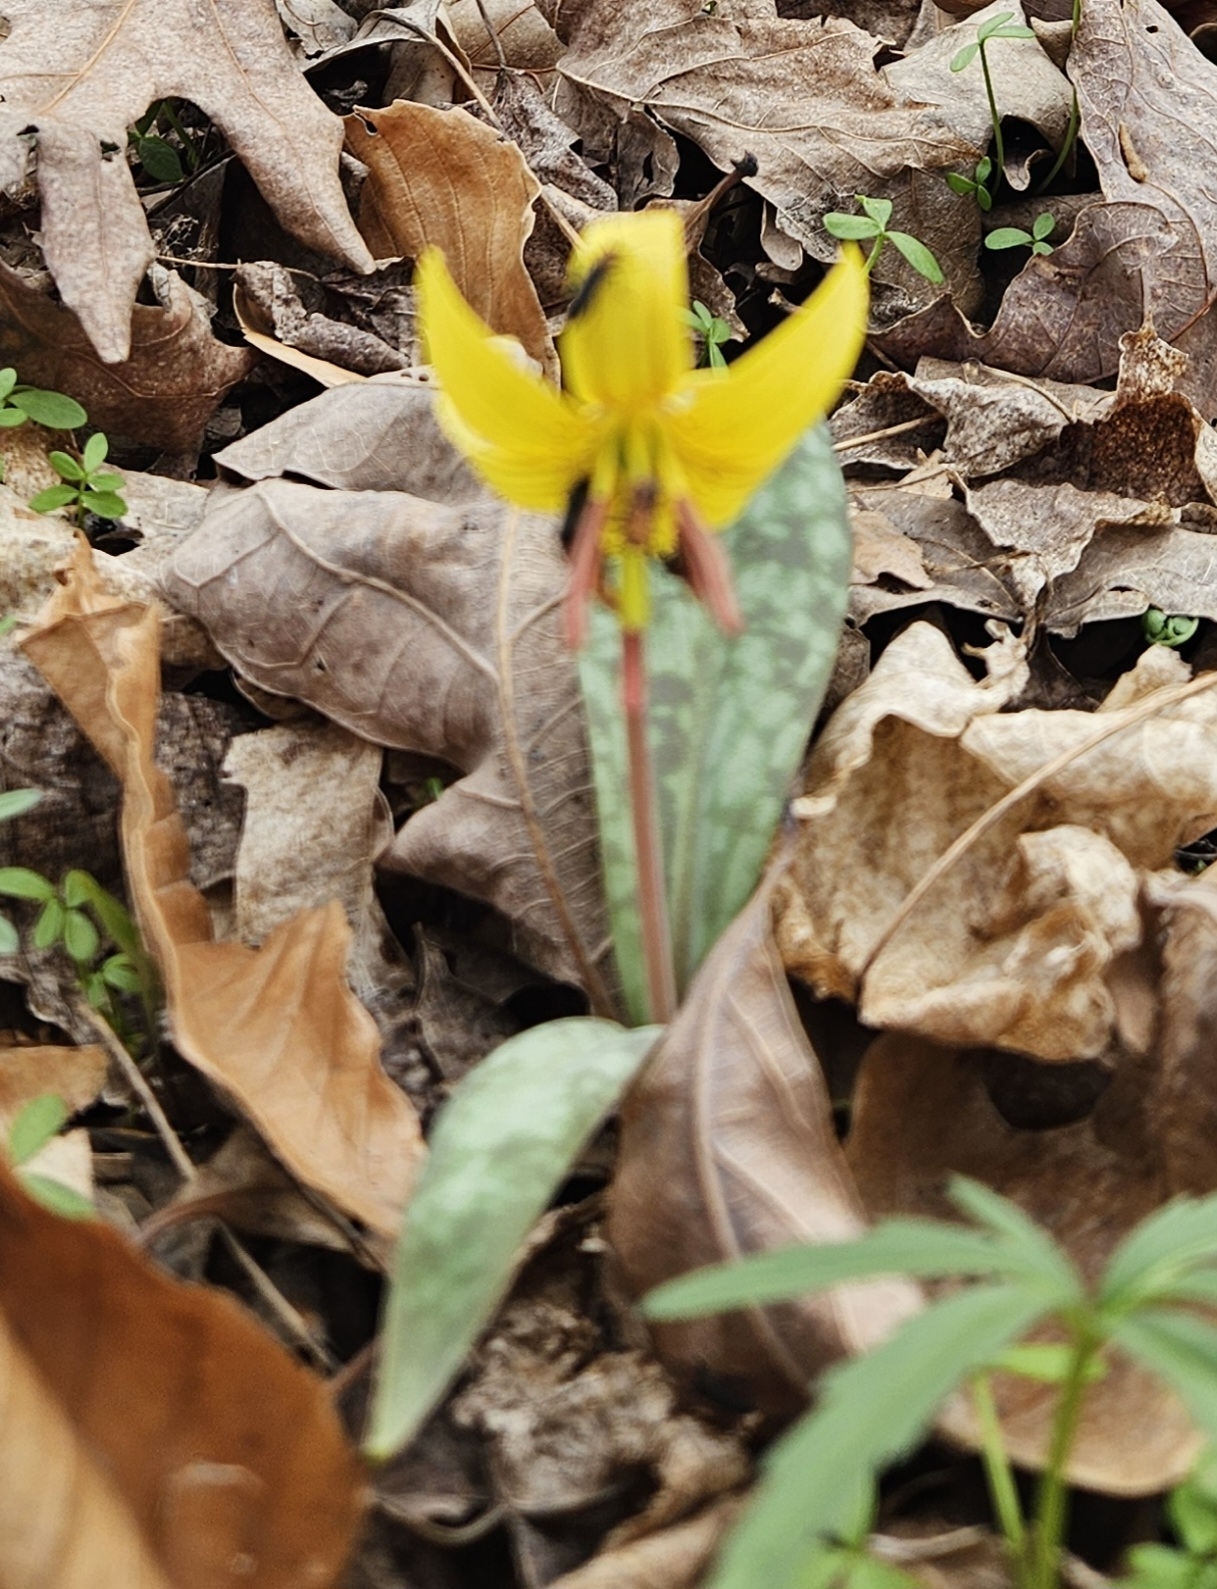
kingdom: Plantae
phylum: Tracheophyta
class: Liliopsida
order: Liliales
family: Liliaceae
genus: Erythronium
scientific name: Erythronium americanum
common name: Yellow adder's-tongue
